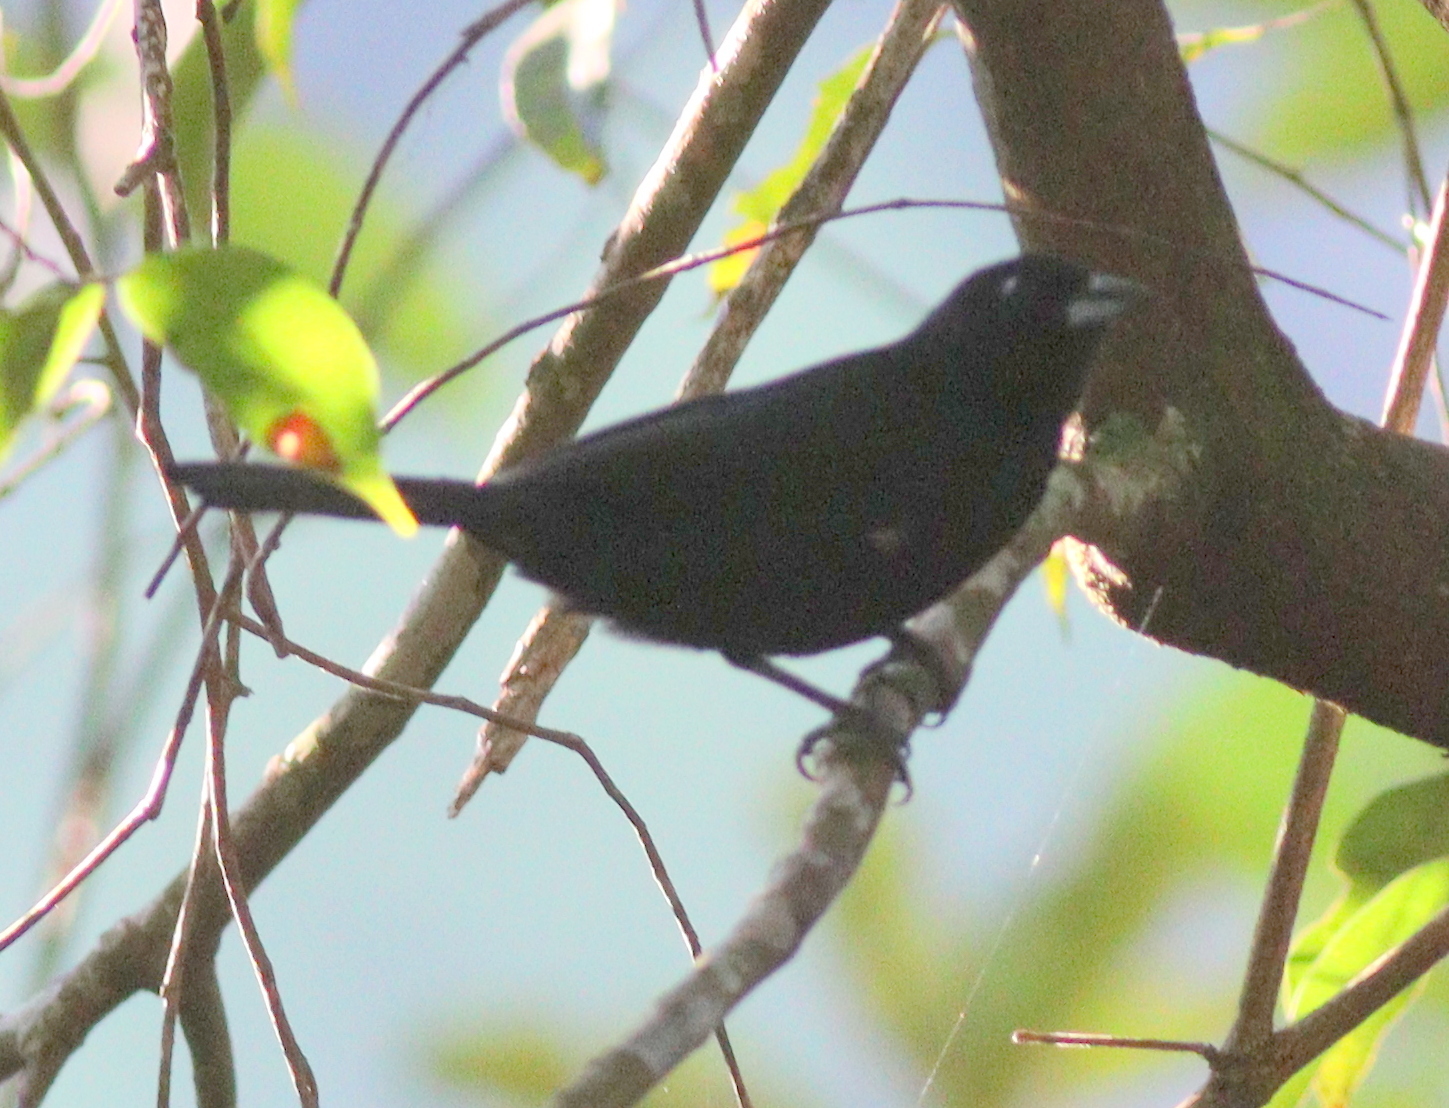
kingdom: Animalia
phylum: Chordata
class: Aves
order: Passeriformes
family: Thraupidae
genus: Tachyphonus
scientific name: Tachyphonus rufus
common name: White-lined tanager
